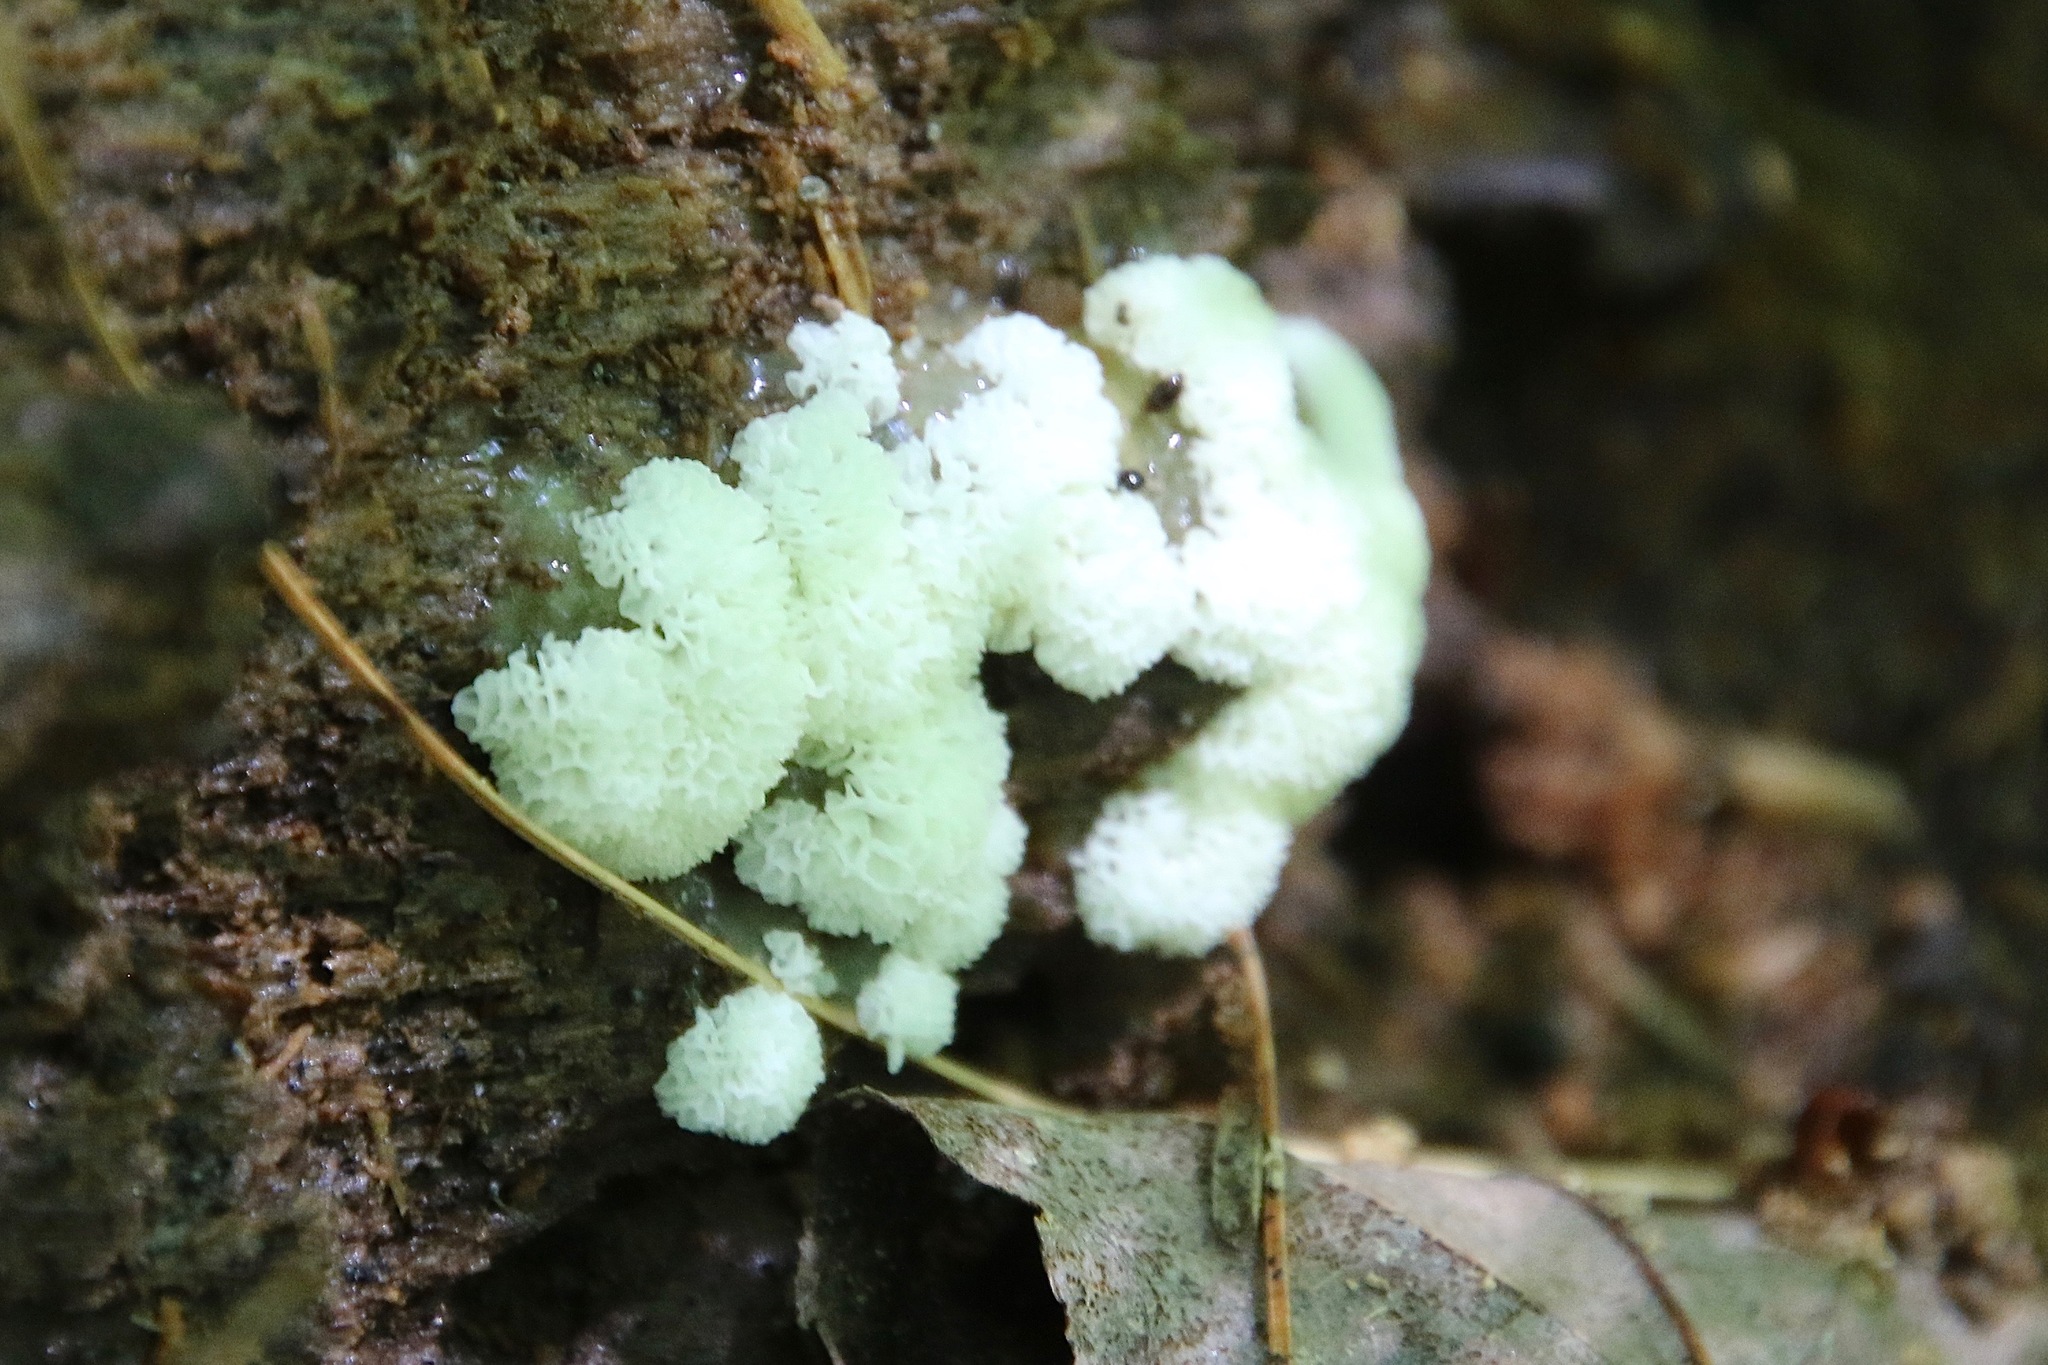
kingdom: Protozoa
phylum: Mycetozoa
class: Protosteliomycetes
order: Ceratiomyxales
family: Ceratiomyxaceae
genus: Ceratiomyxa
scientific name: Ceratiomyxa fruticulosa
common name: Honeycomb coral slime mold
